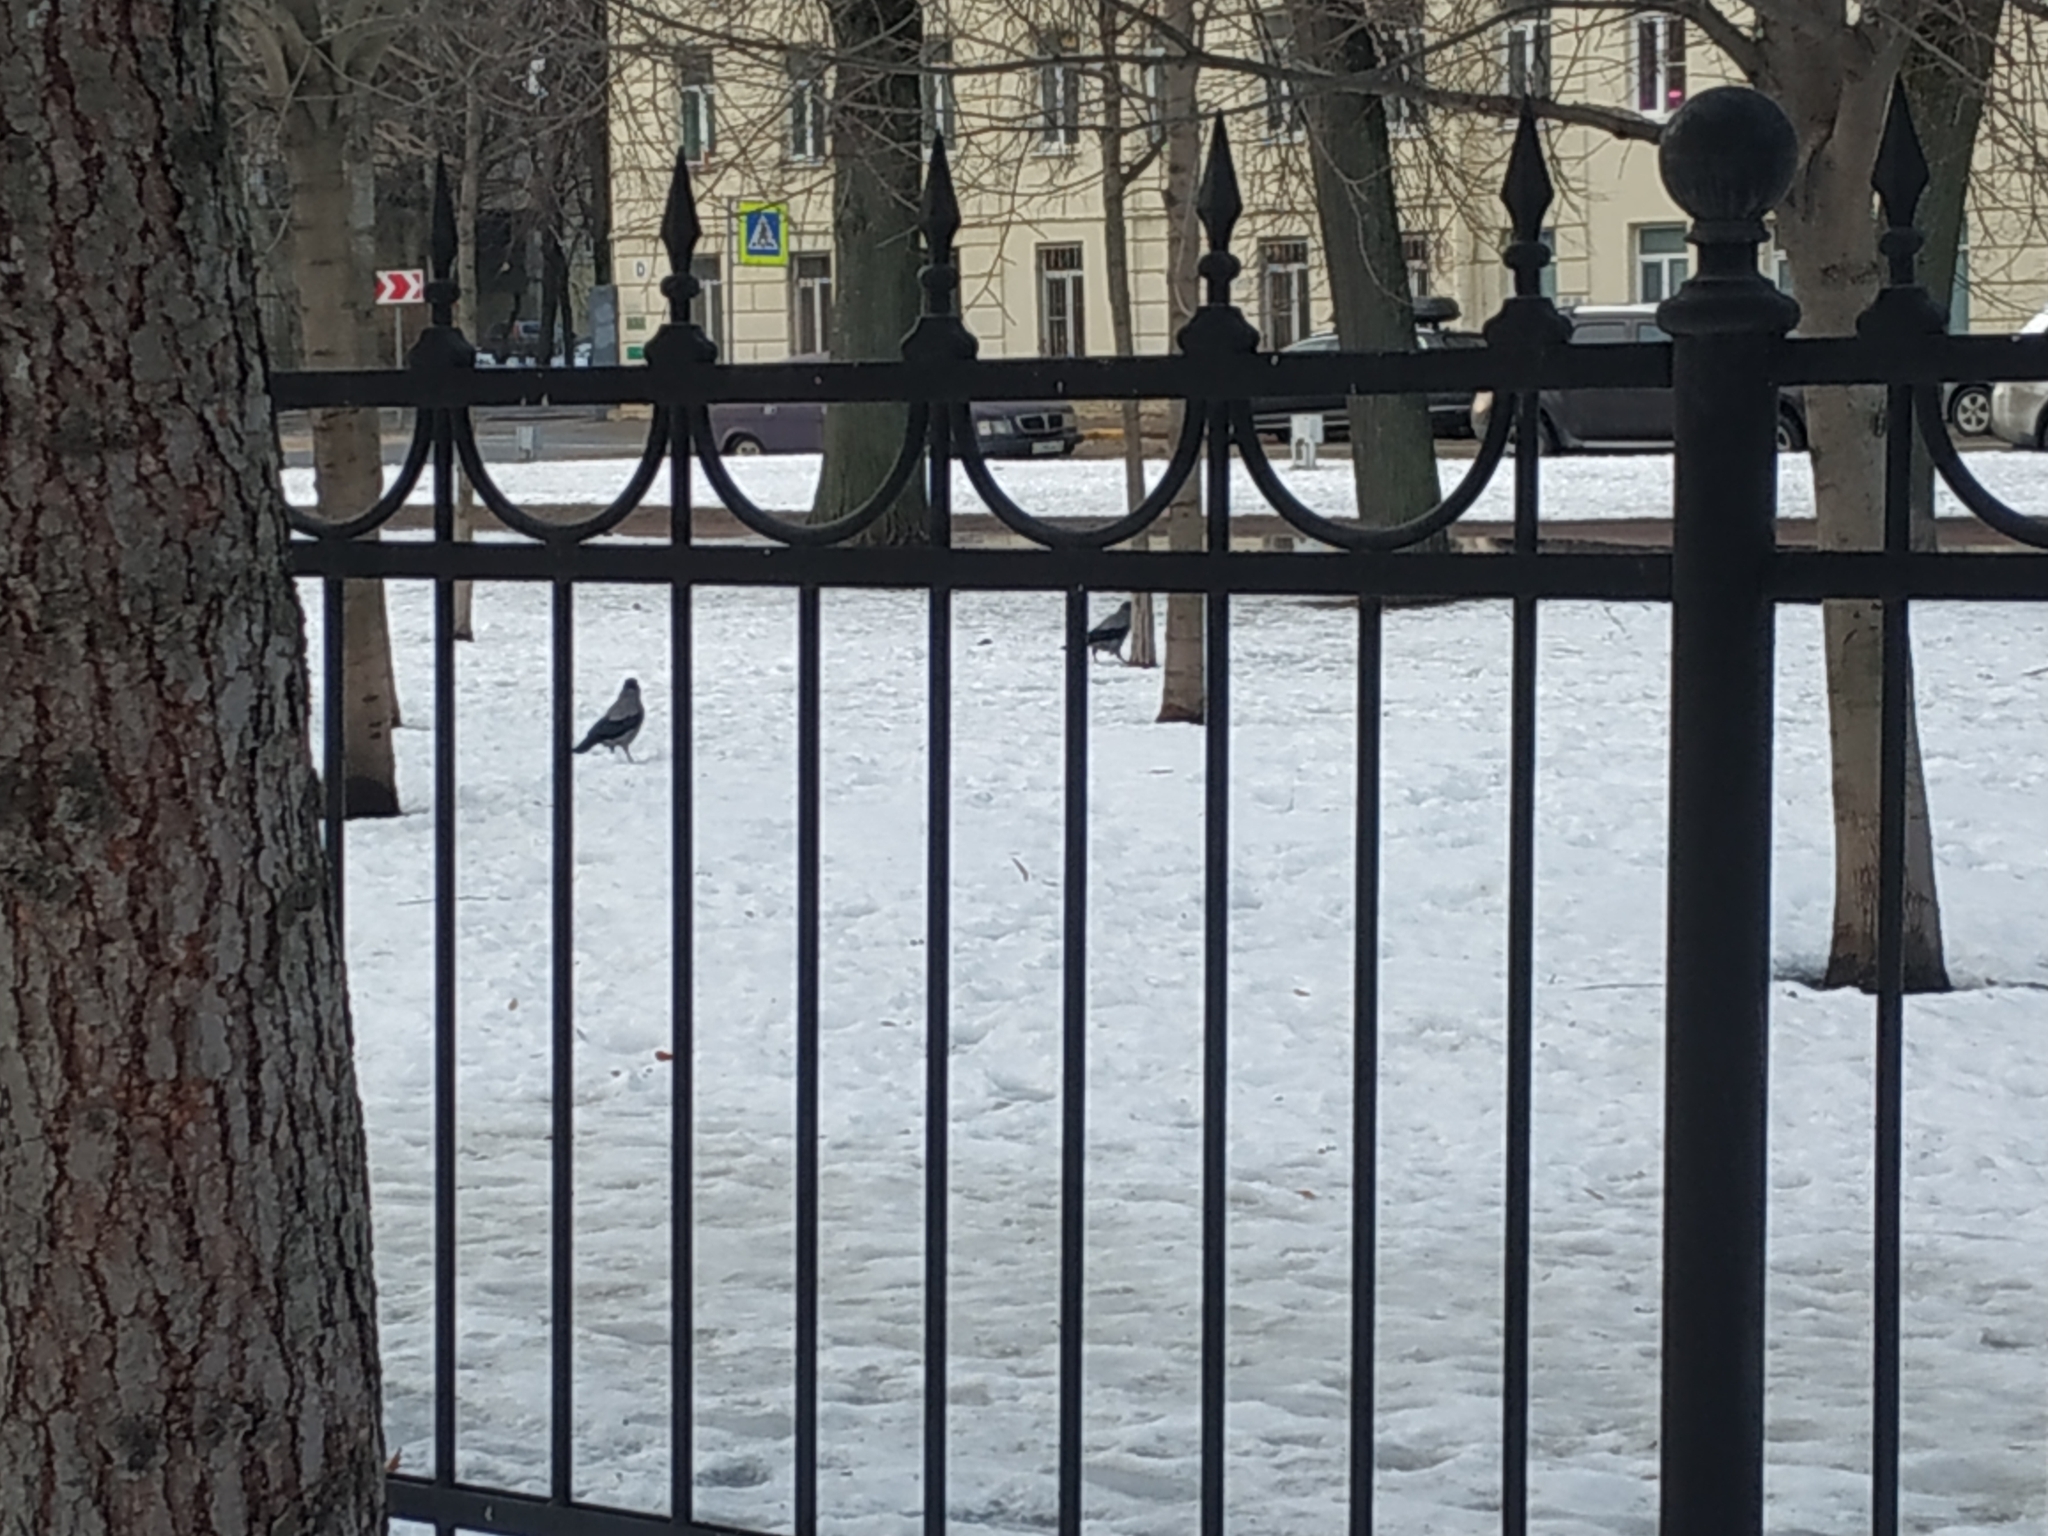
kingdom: Animalia
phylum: Chordata
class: Aves
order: Passeriformes
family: Corvidae
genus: Corvus
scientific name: Corvus cornix
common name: Hooded crow
